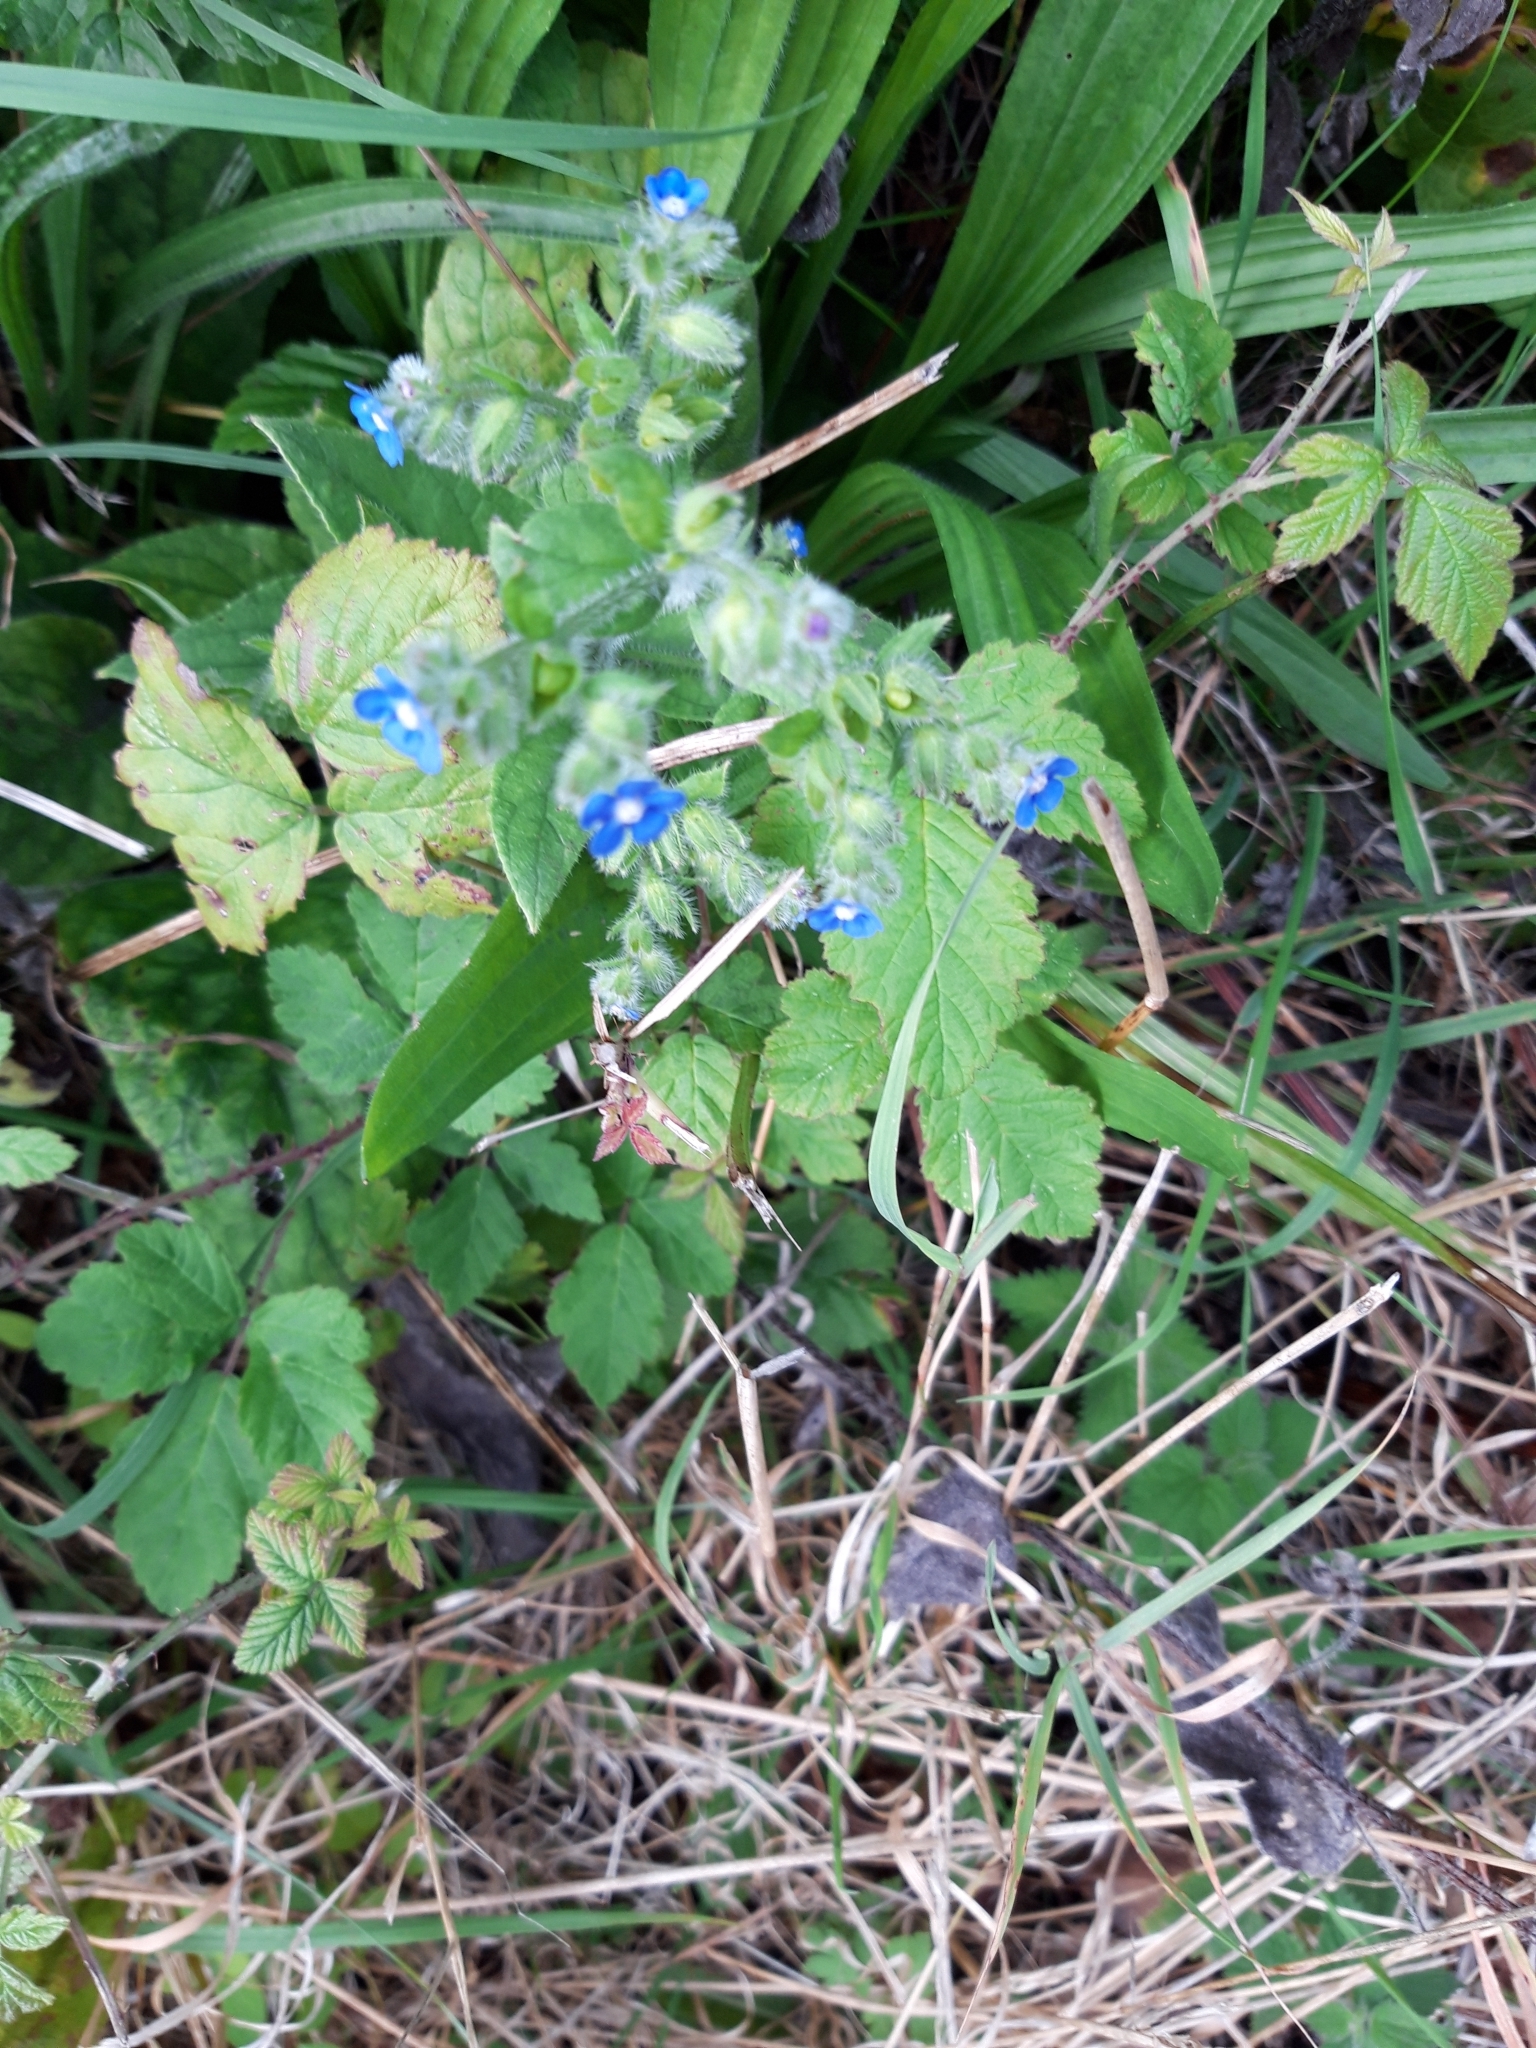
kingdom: Plantae
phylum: Tracheophyta
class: Magnoliopsida
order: Boraginales
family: Boraginaceae
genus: Pentaglottis
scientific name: Pentaglottis sempervirens
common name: Green alkanet
